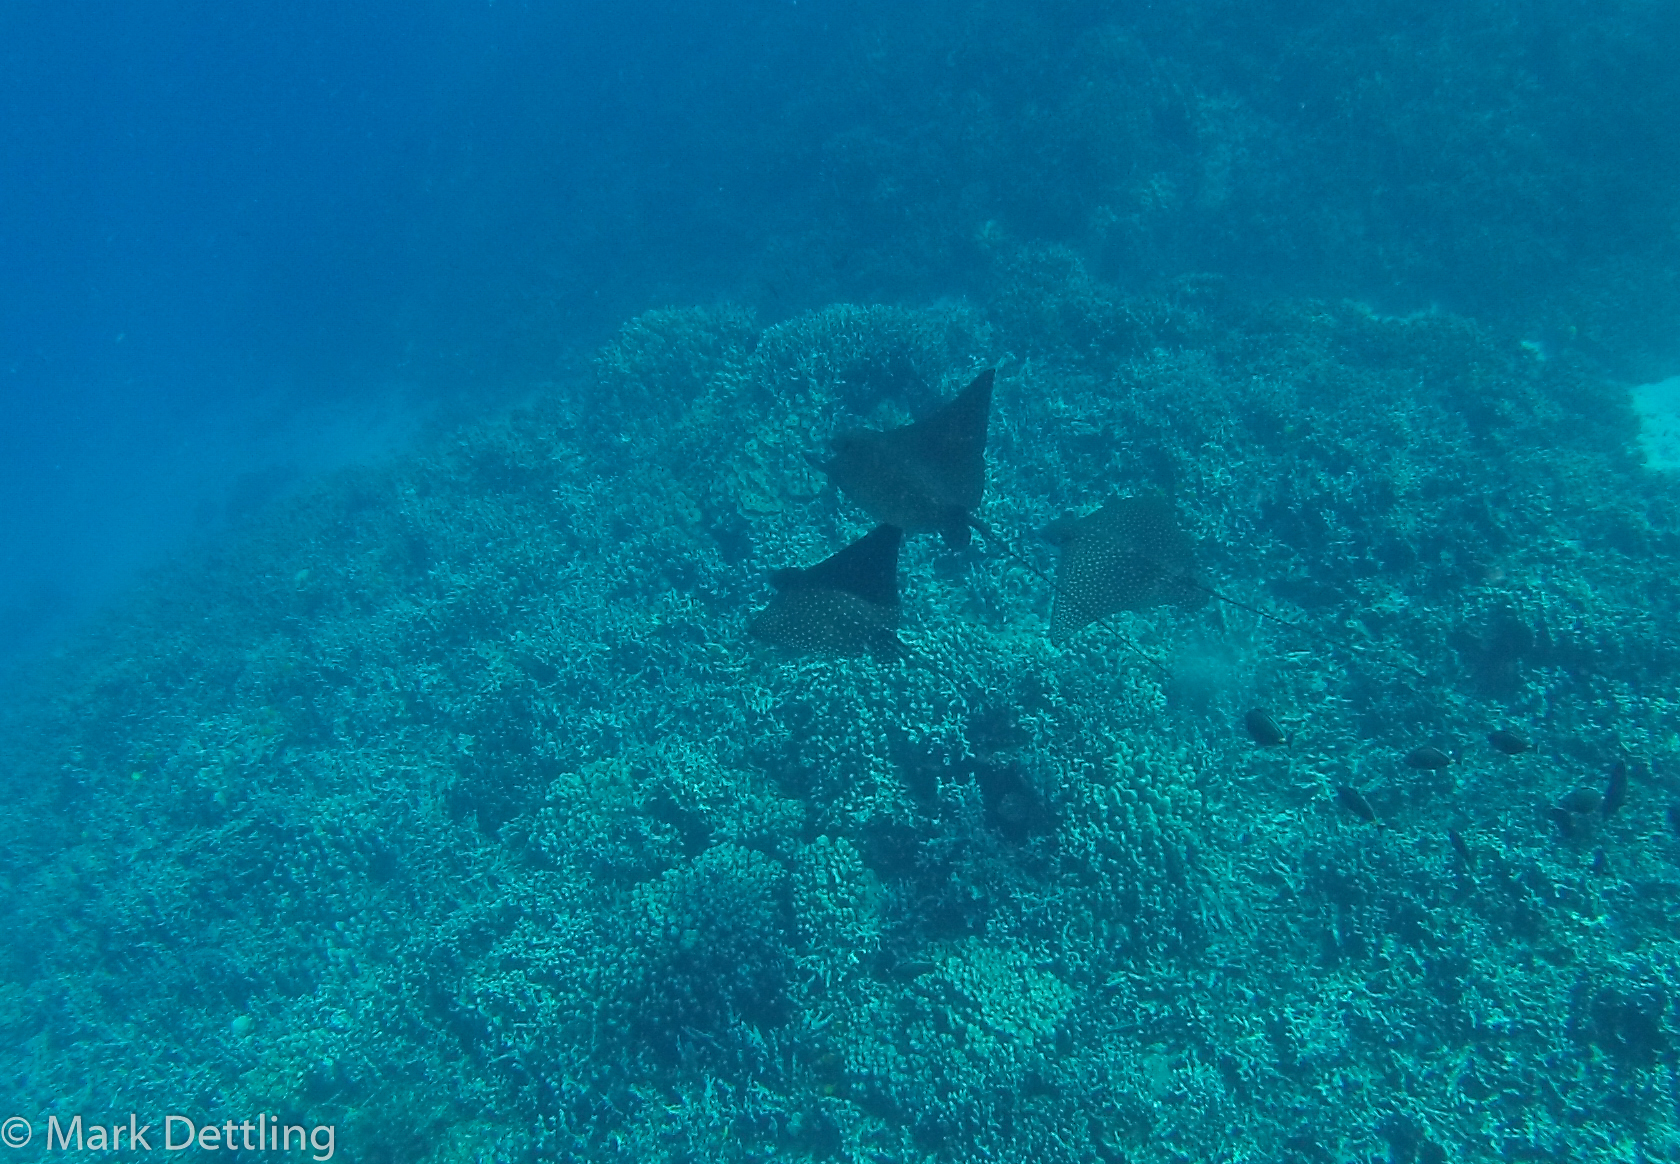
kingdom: Animalia
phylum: Chordata
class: Elasmobranchii
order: Myliobatiformes
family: Myliobatidae
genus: Aetobatus
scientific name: Aetobatus ocellatus
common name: Ocellated eagle ray
